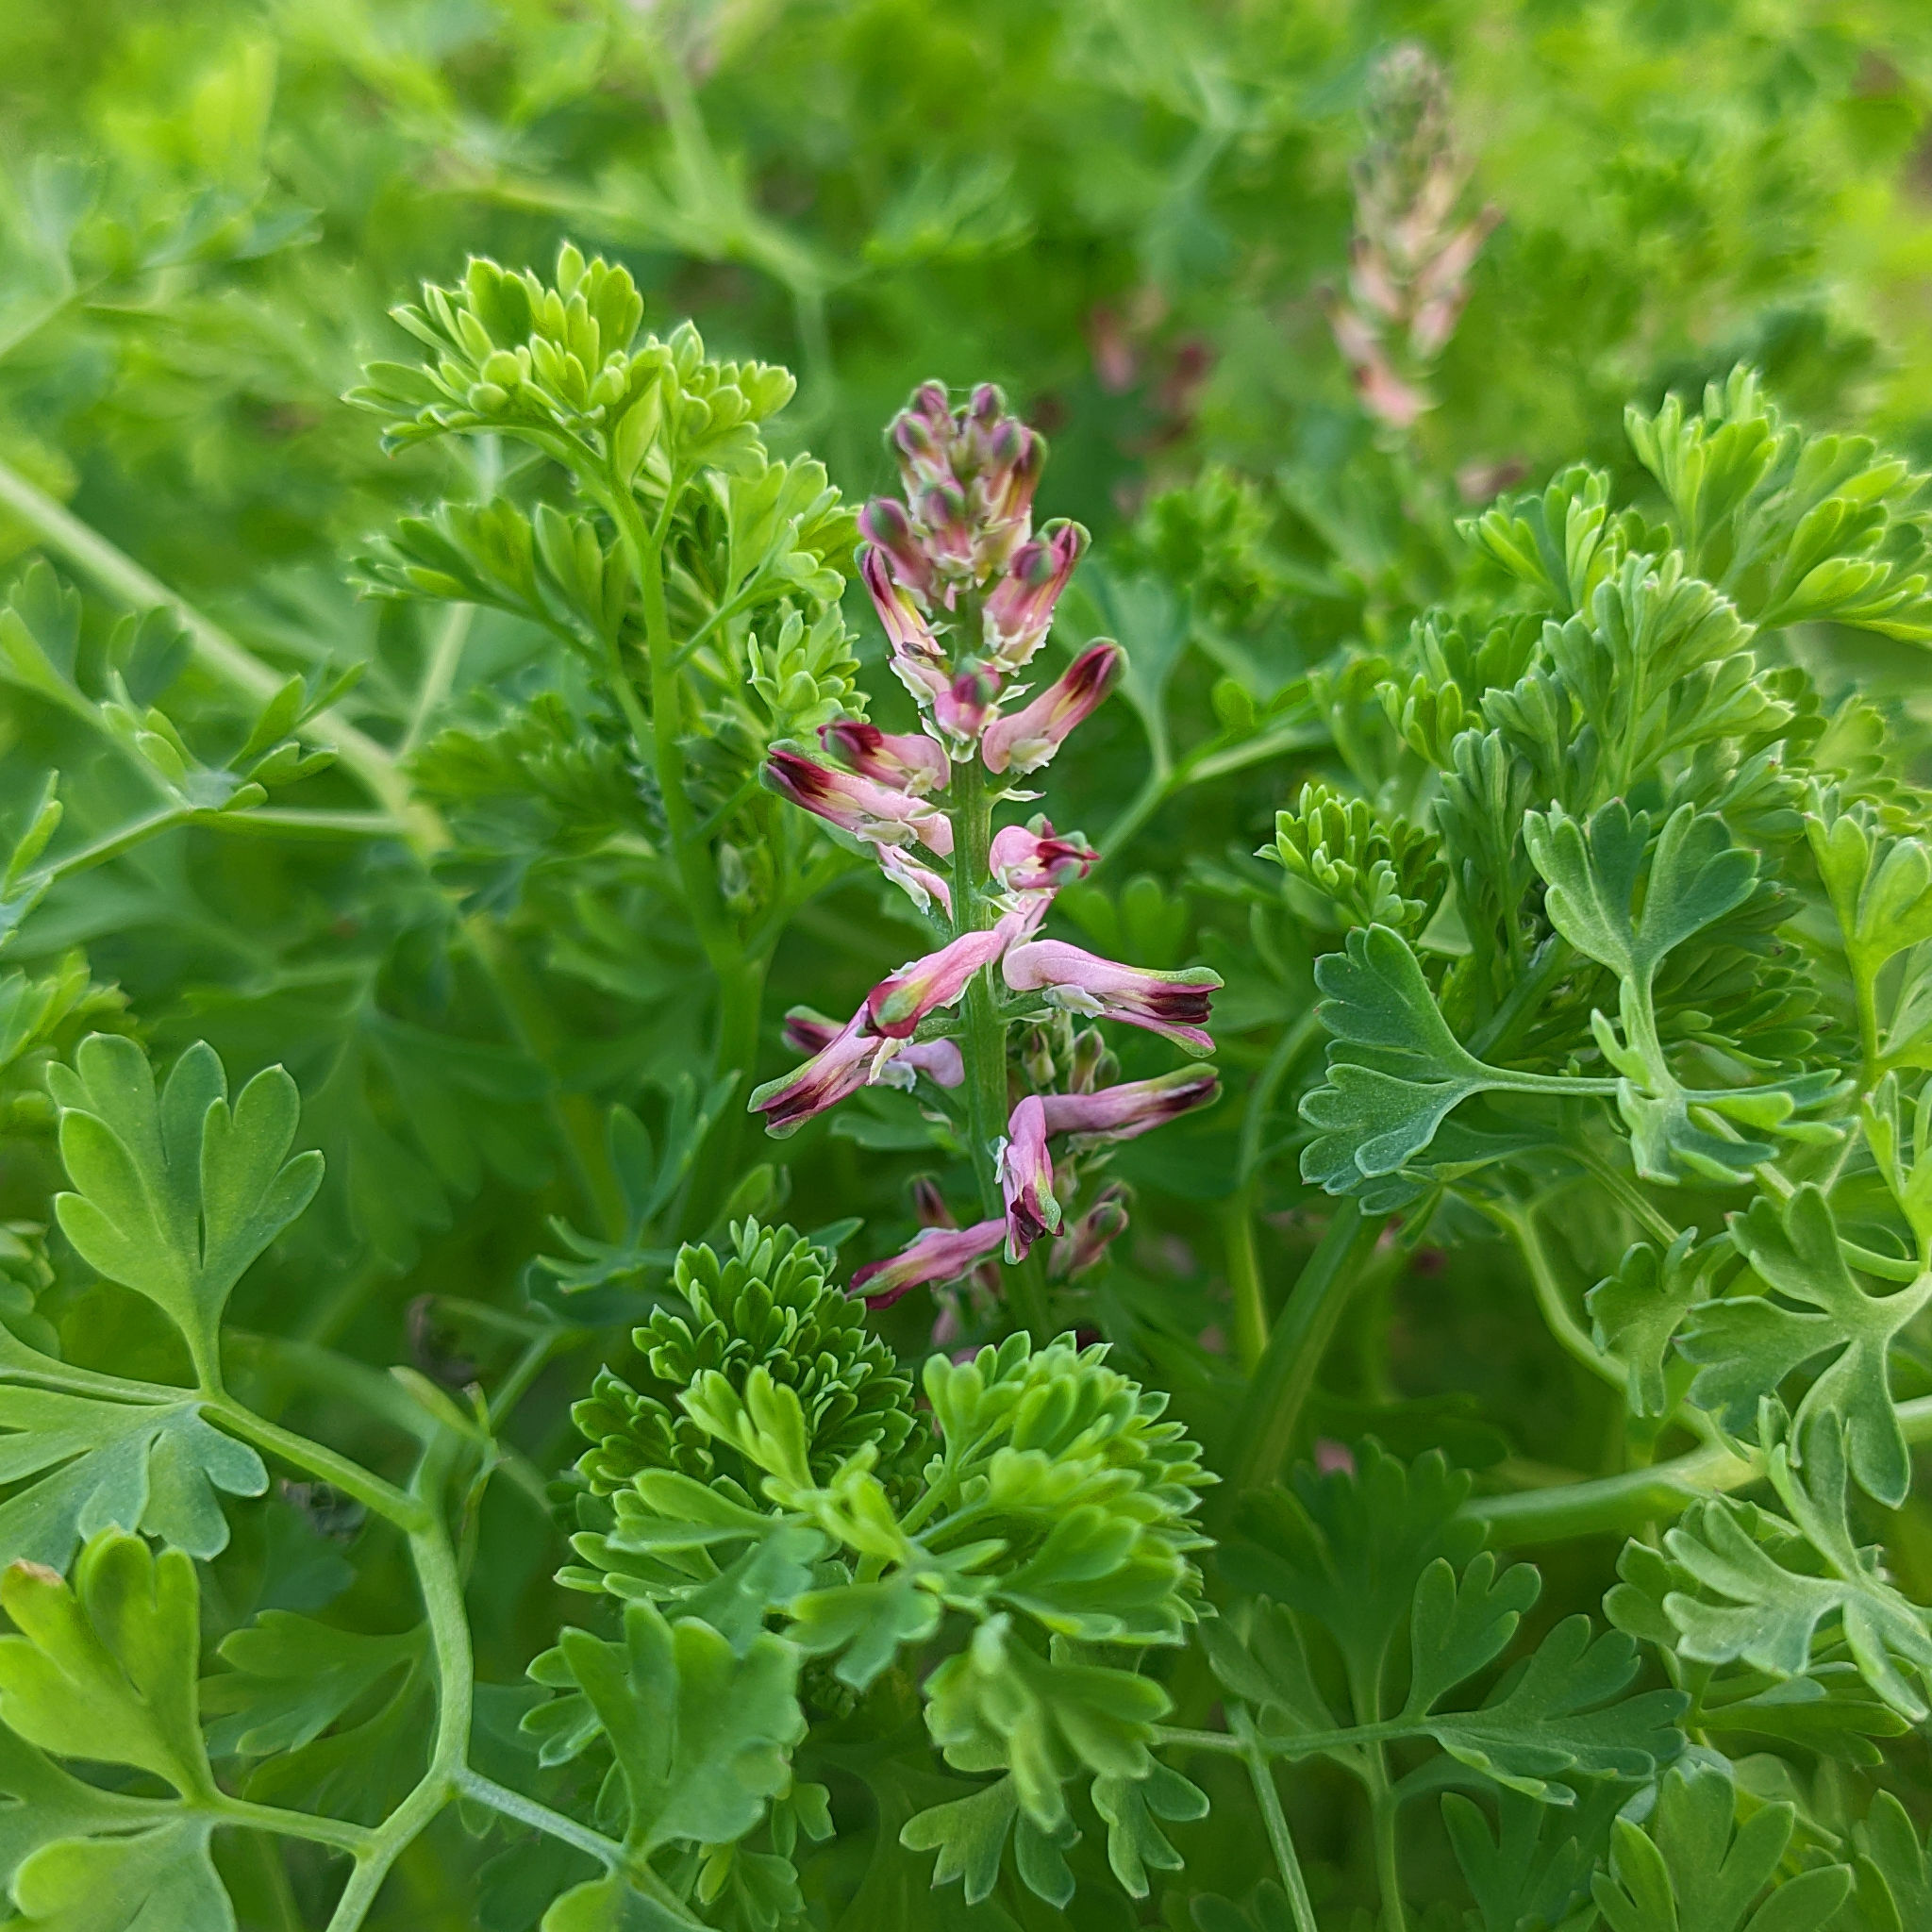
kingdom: Plantae
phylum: Tracheophyta
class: Magnoliopsida
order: Ranunculales
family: Papaveraceae
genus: Fumaria
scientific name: Fumaria officinalis
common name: Common fumitory
